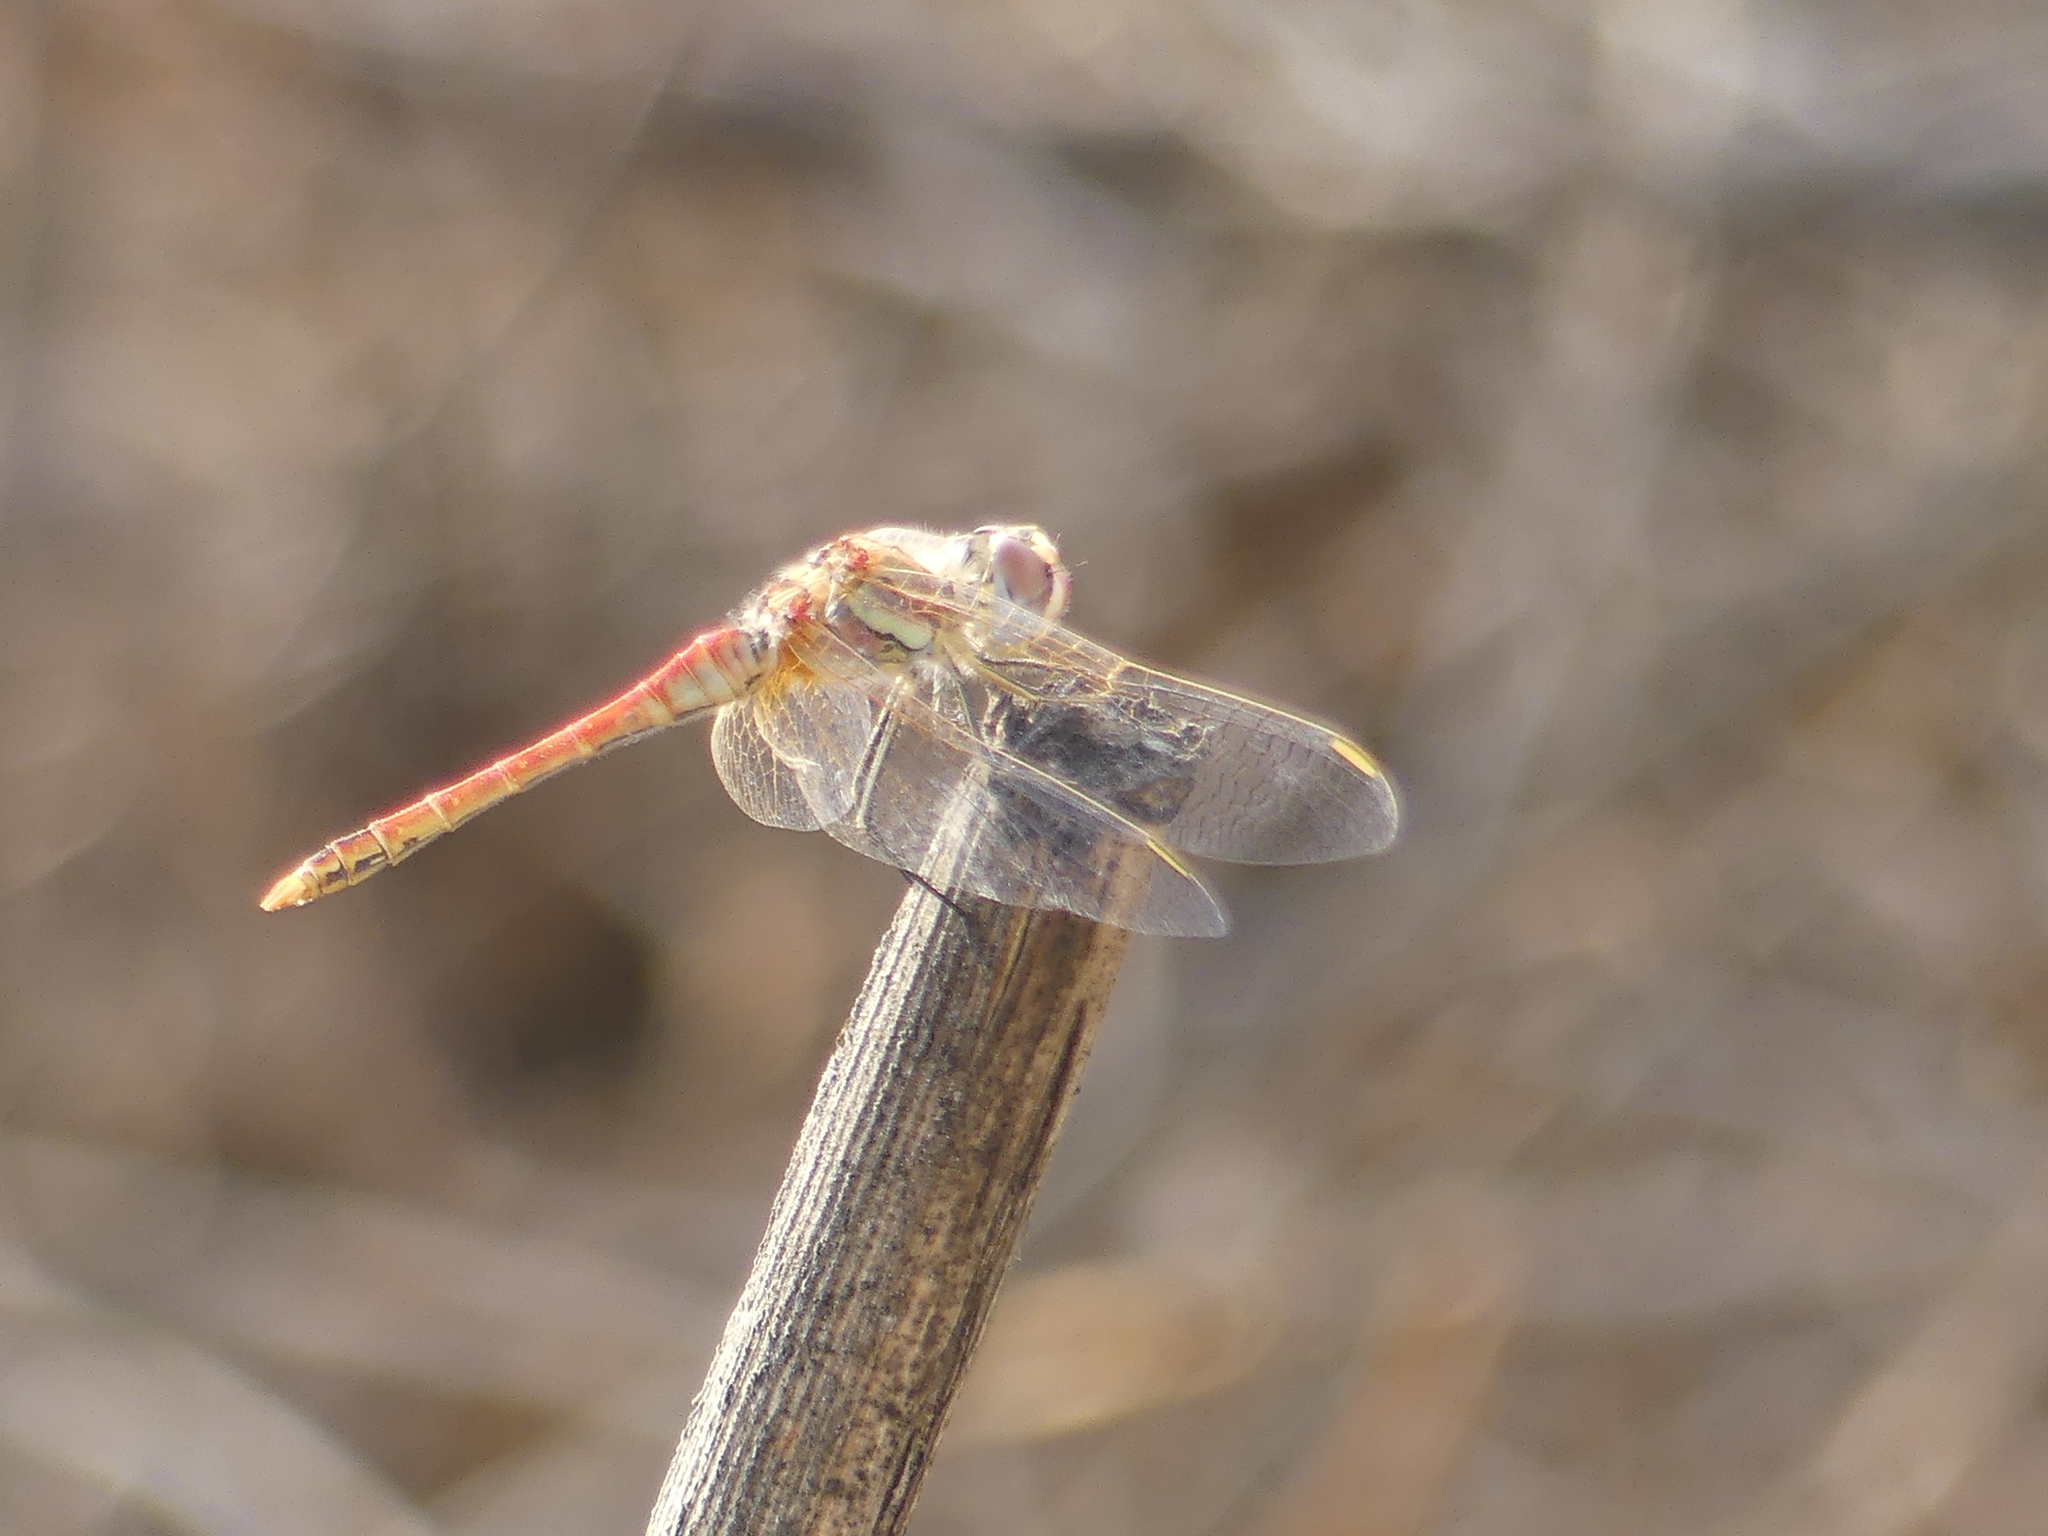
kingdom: Animalia
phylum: Arthropoda
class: Insecta
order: Odonata
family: Libellulidae
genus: Sympetrum
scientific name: Sympetrum fonscolombii
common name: Red-veined darter
